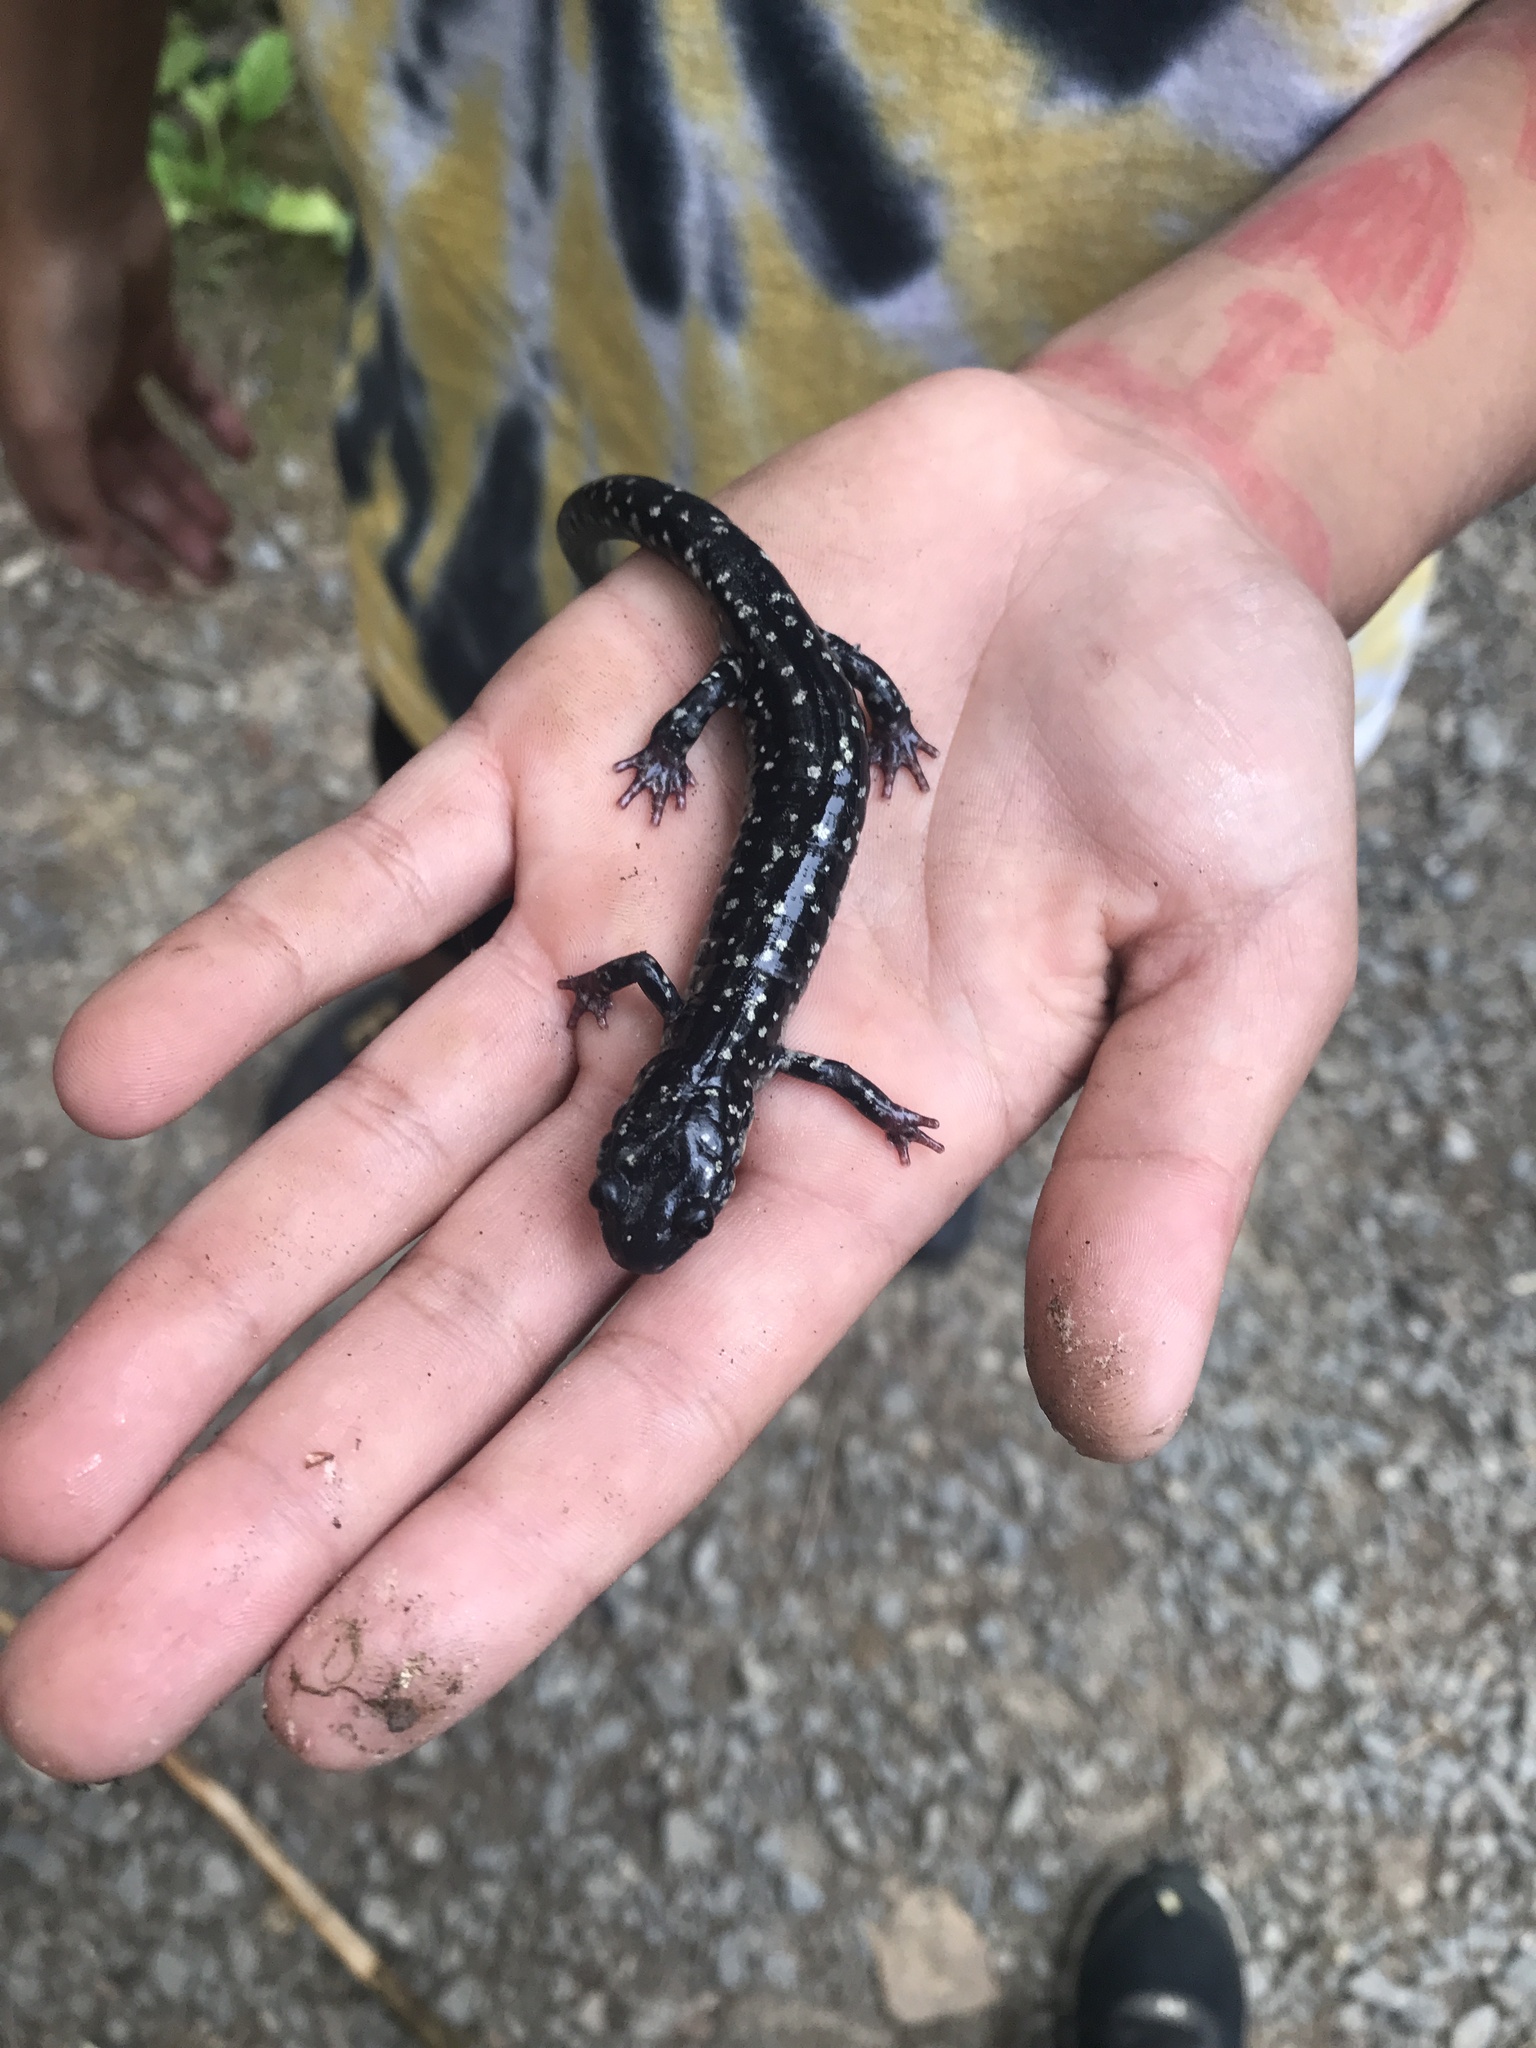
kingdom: Animalia
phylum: Chordata
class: Amphibia
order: Caudata
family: Plethodontidae
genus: Plethodon
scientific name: Plethodon glutinosus
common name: Northern slimy salamander
